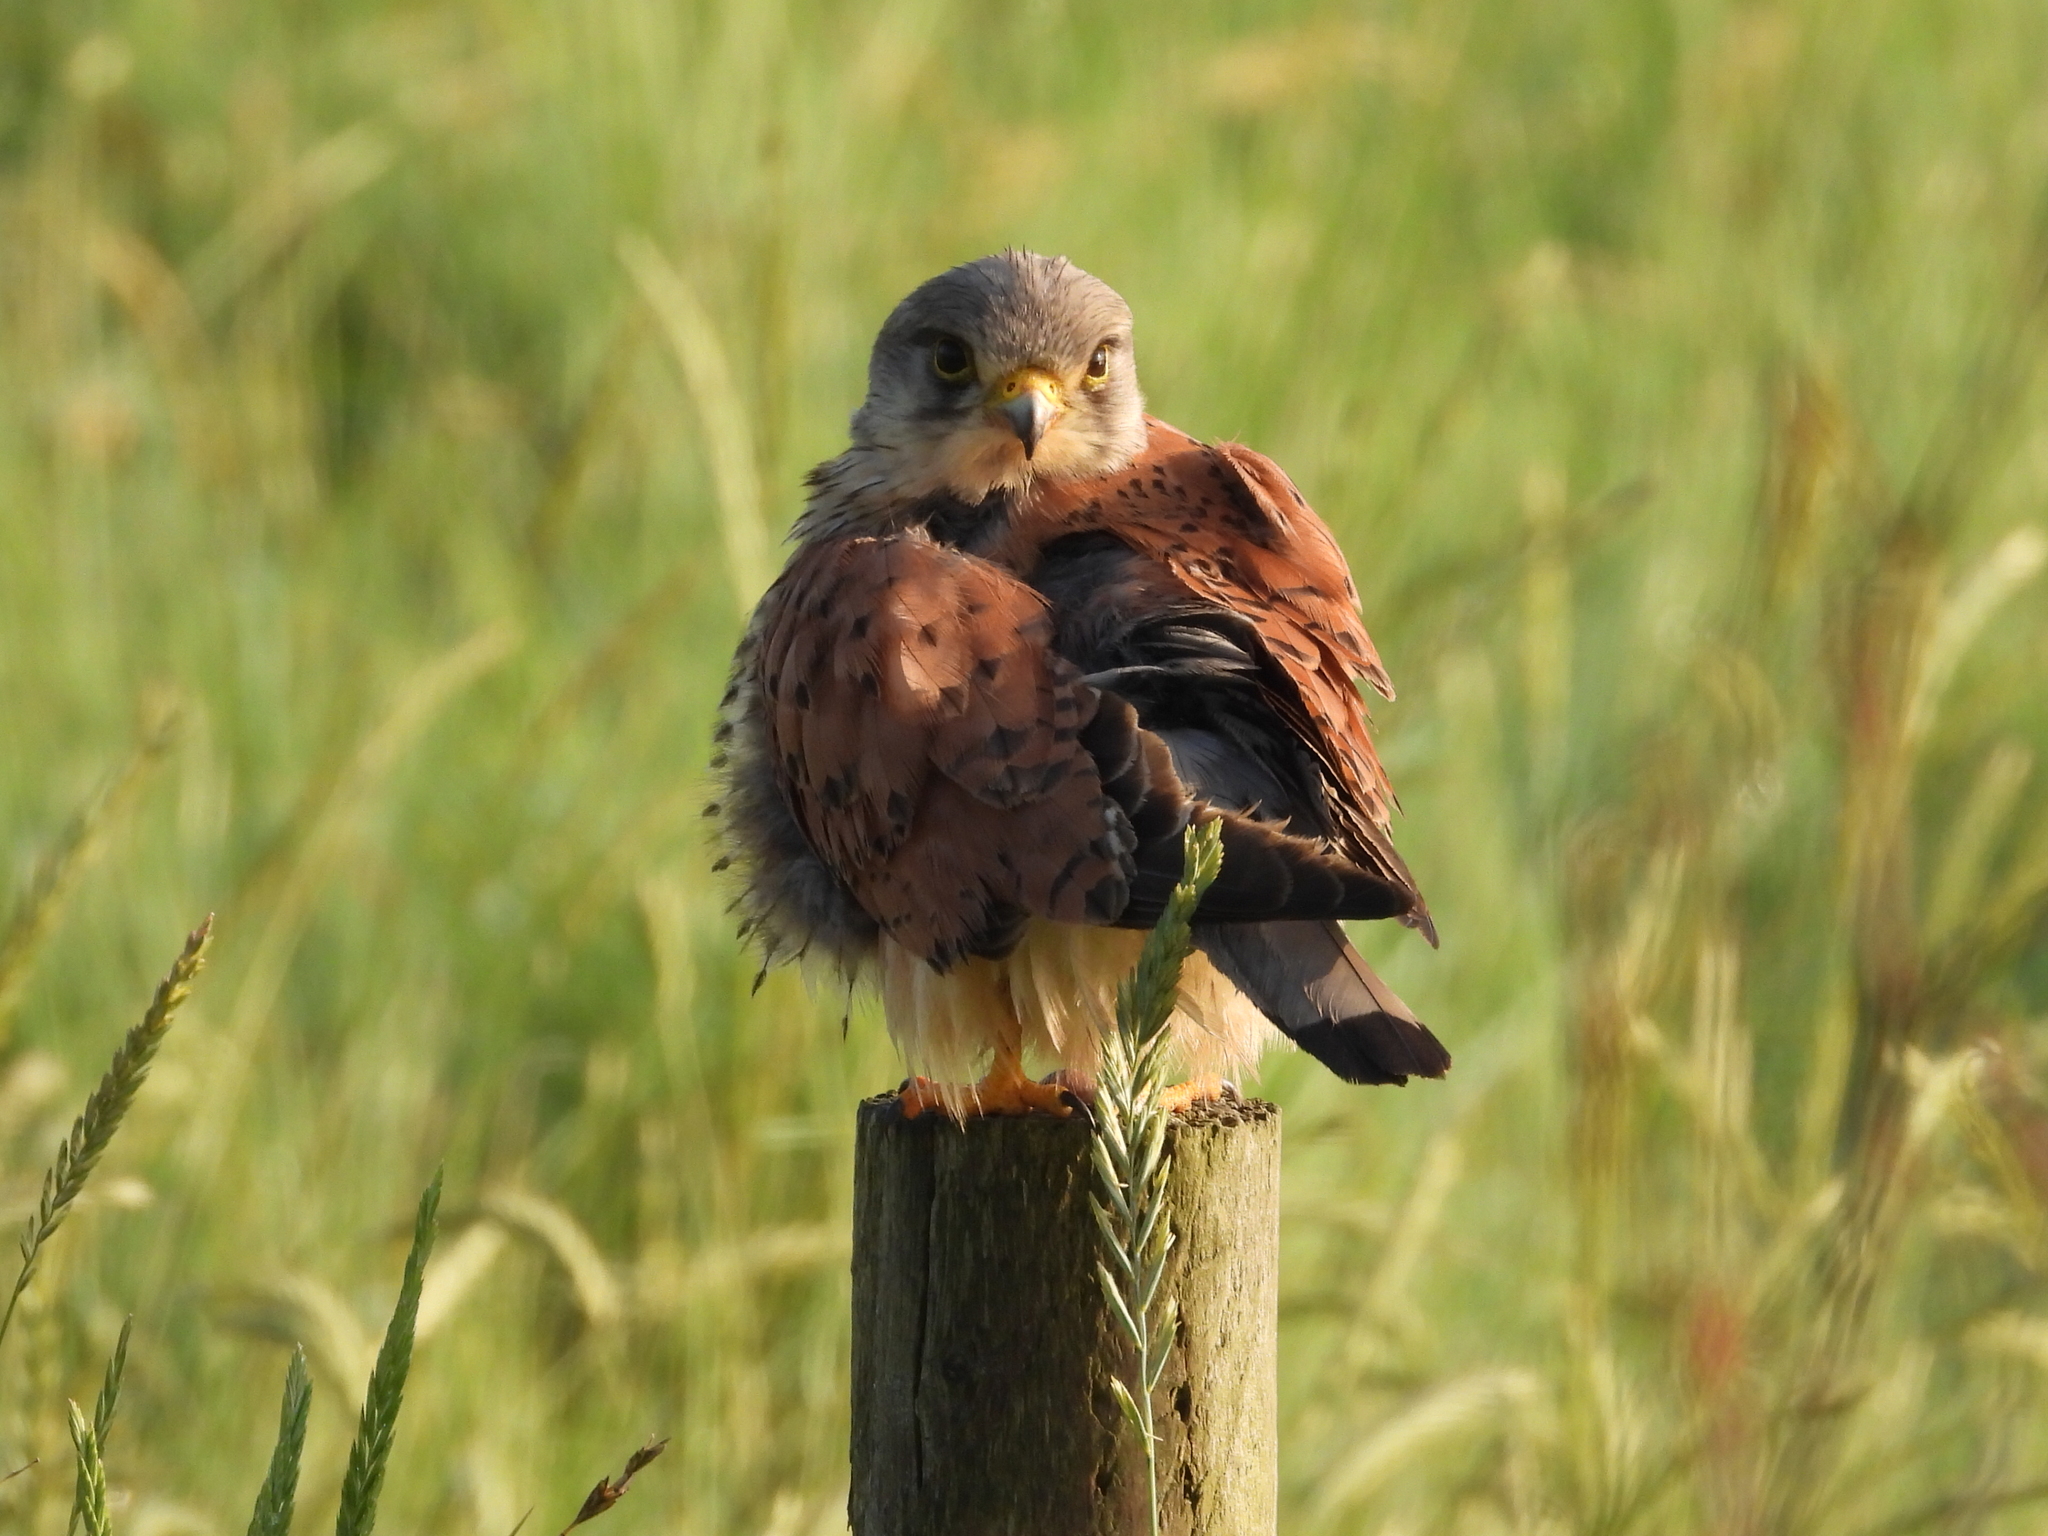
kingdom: Animalia
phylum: Chordata
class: Aves
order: Falconiformes
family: Falconidae
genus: Falco
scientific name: Falco tinnunculus
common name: Common kestrel
